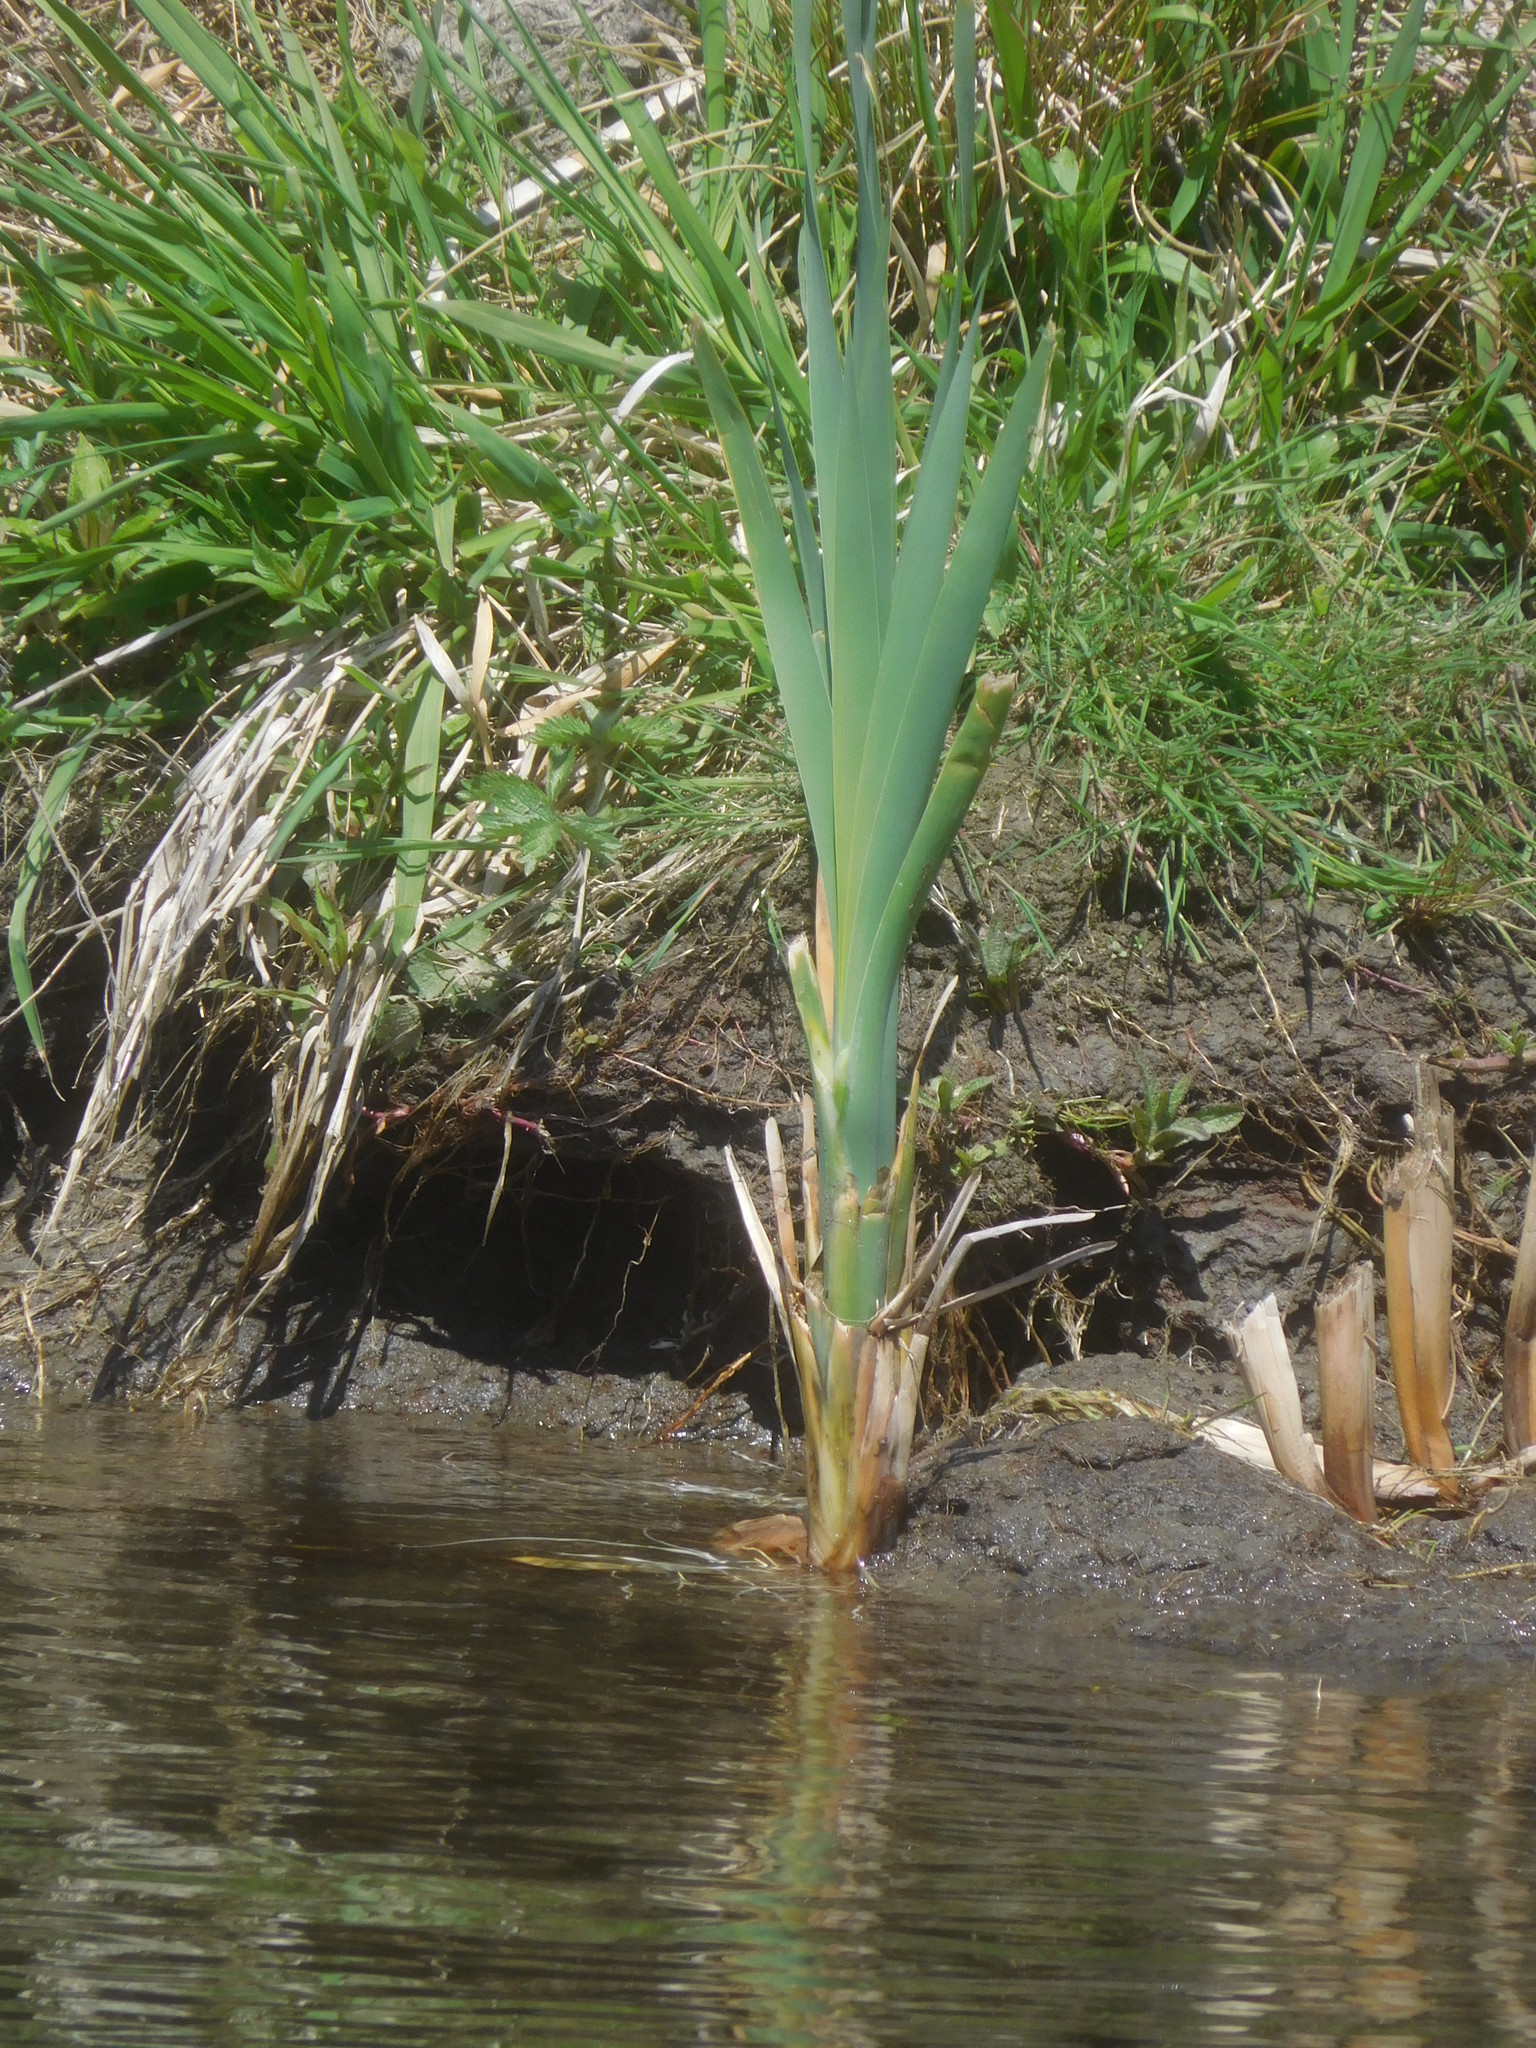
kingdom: Plantae
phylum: Tracheophyta
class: Liliopsida
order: Poales
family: Typhaceae
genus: Typha
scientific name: Typha
